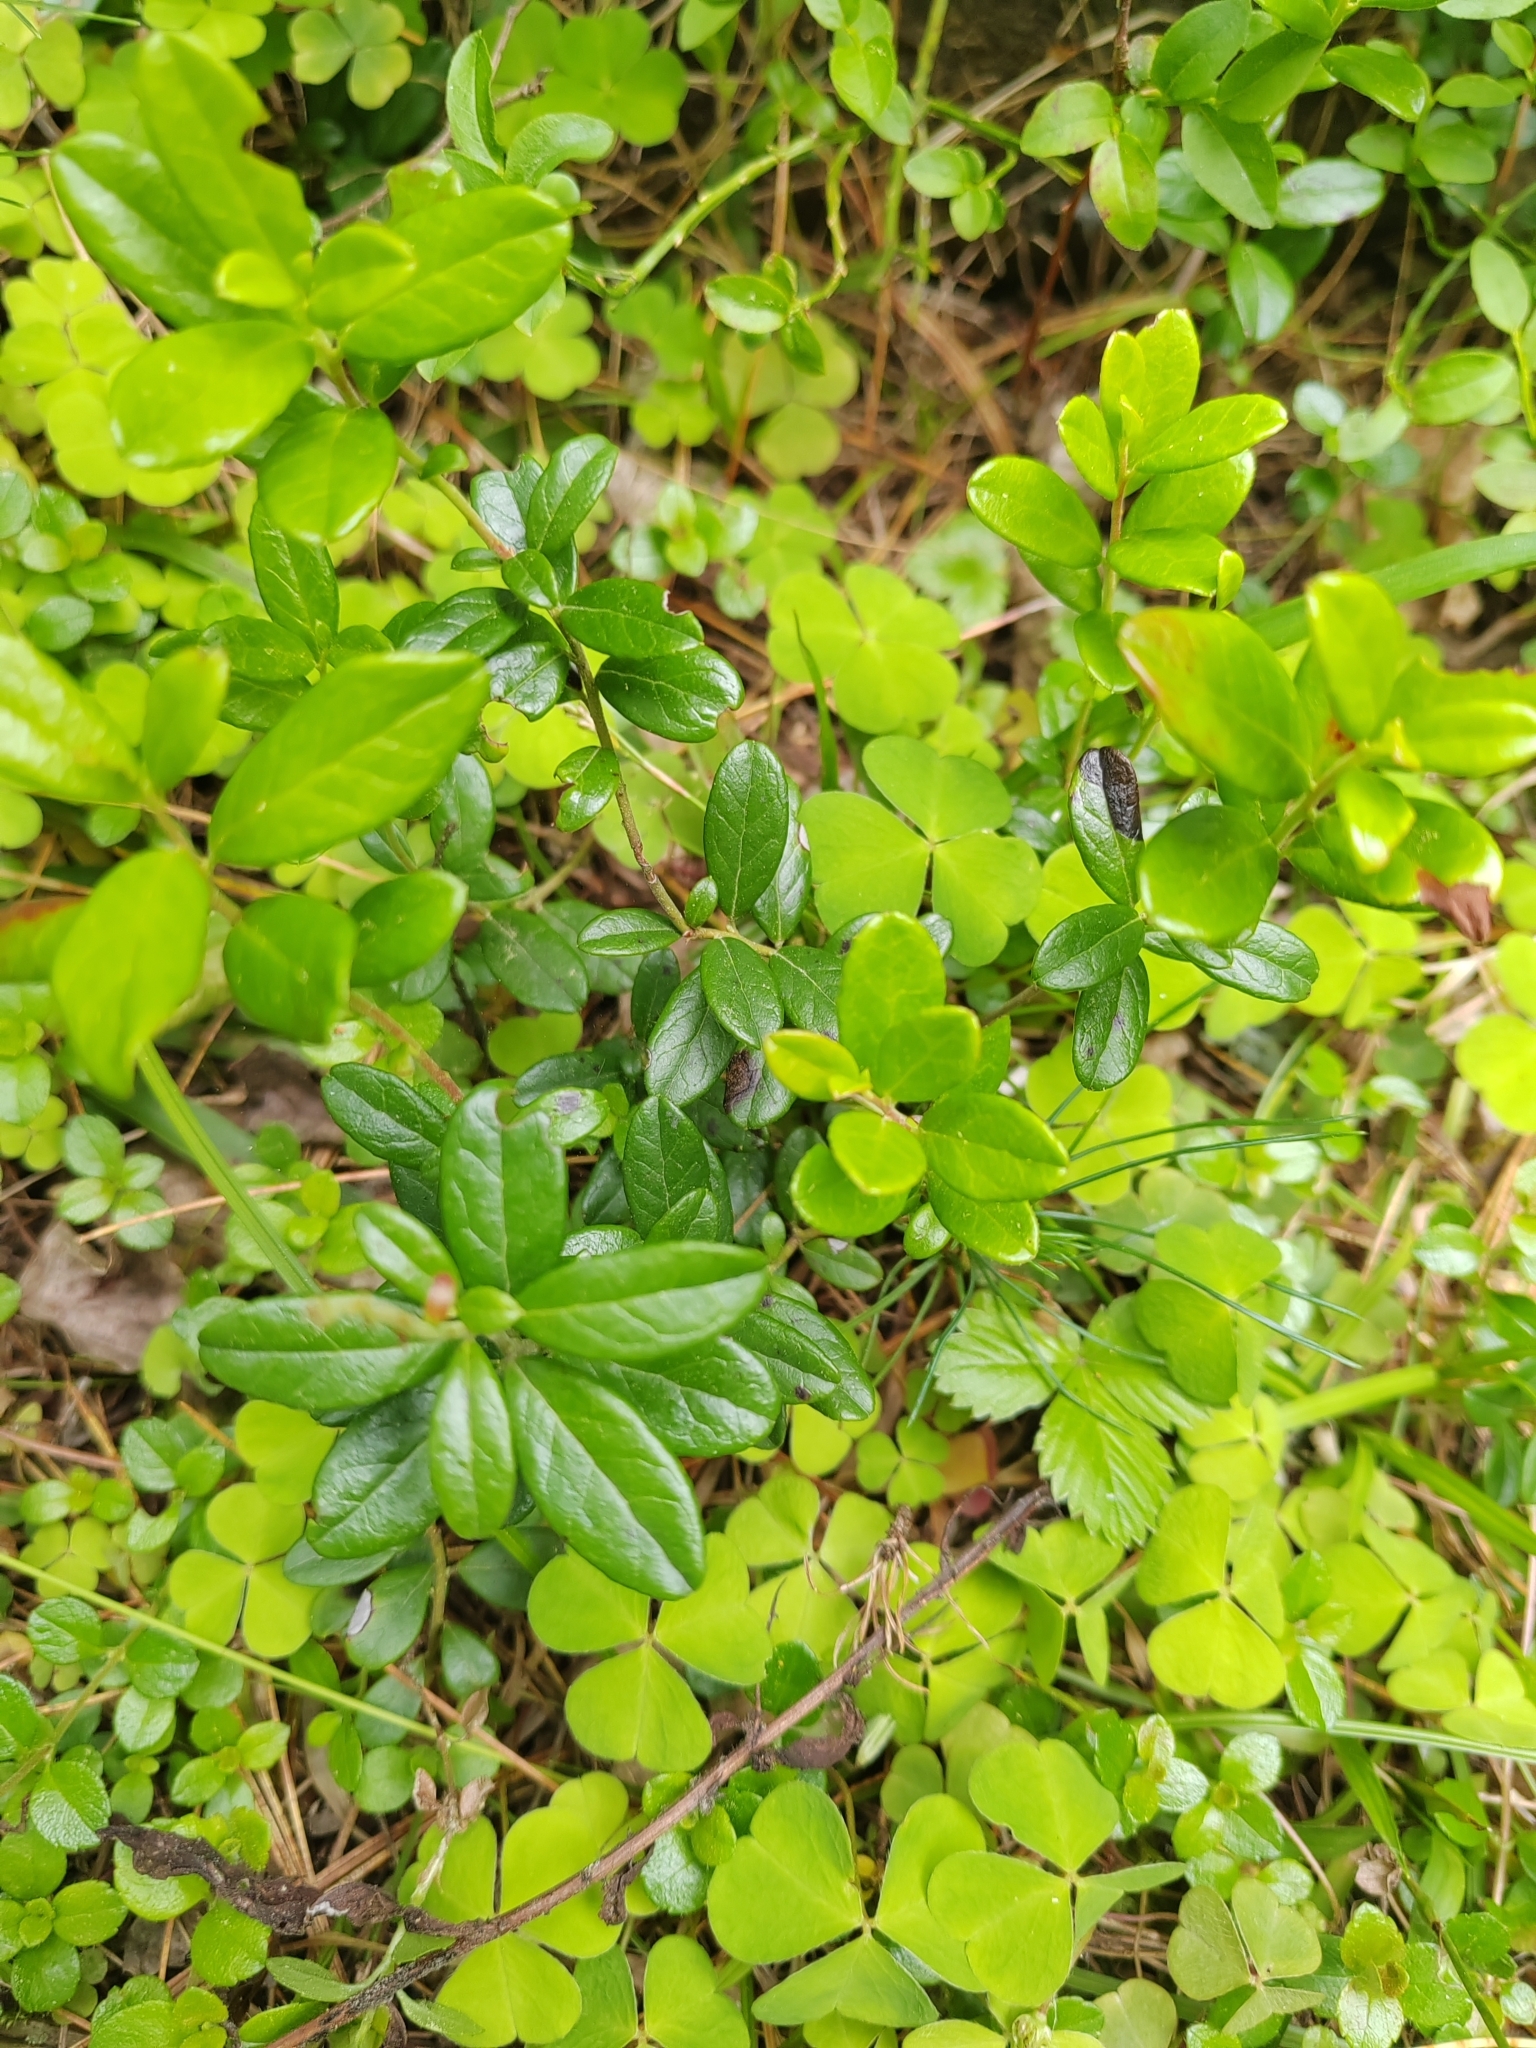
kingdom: Plantae
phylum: Tracheophyta
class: Magnoliopsida
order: Ericales
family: Ericaceae
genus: Vaccinium
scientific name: Vaccinium vitis-idaea
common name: Cowberry
